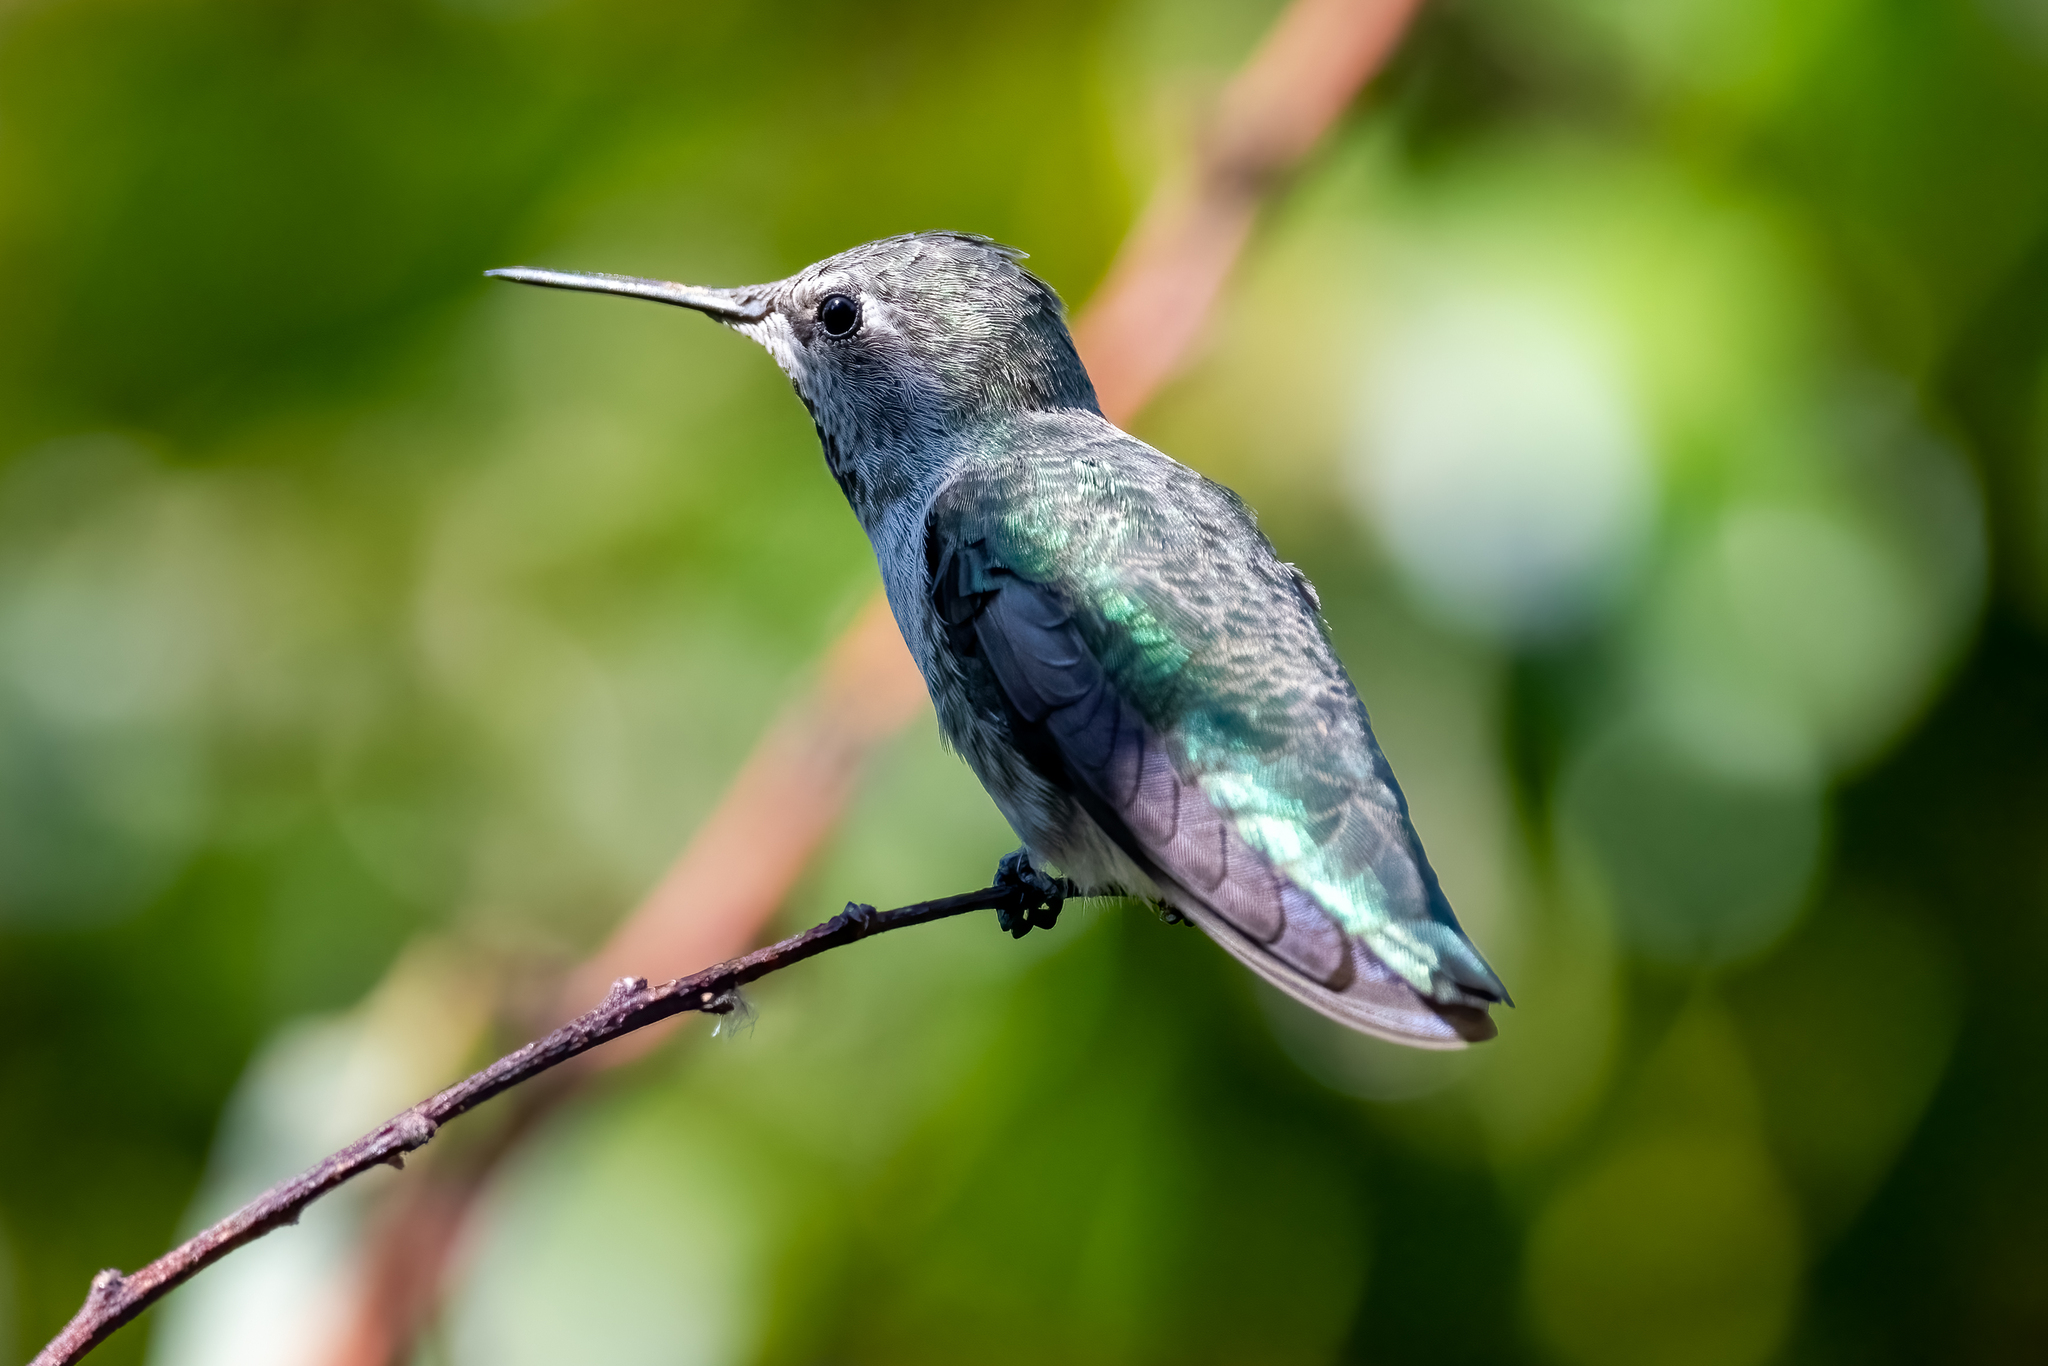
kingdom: Animalia
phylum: Chordata
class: Aves
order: Apodiformes
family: Trochilidae
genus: Calypte
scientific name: Calypte anna
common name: Anna's hummingbird
